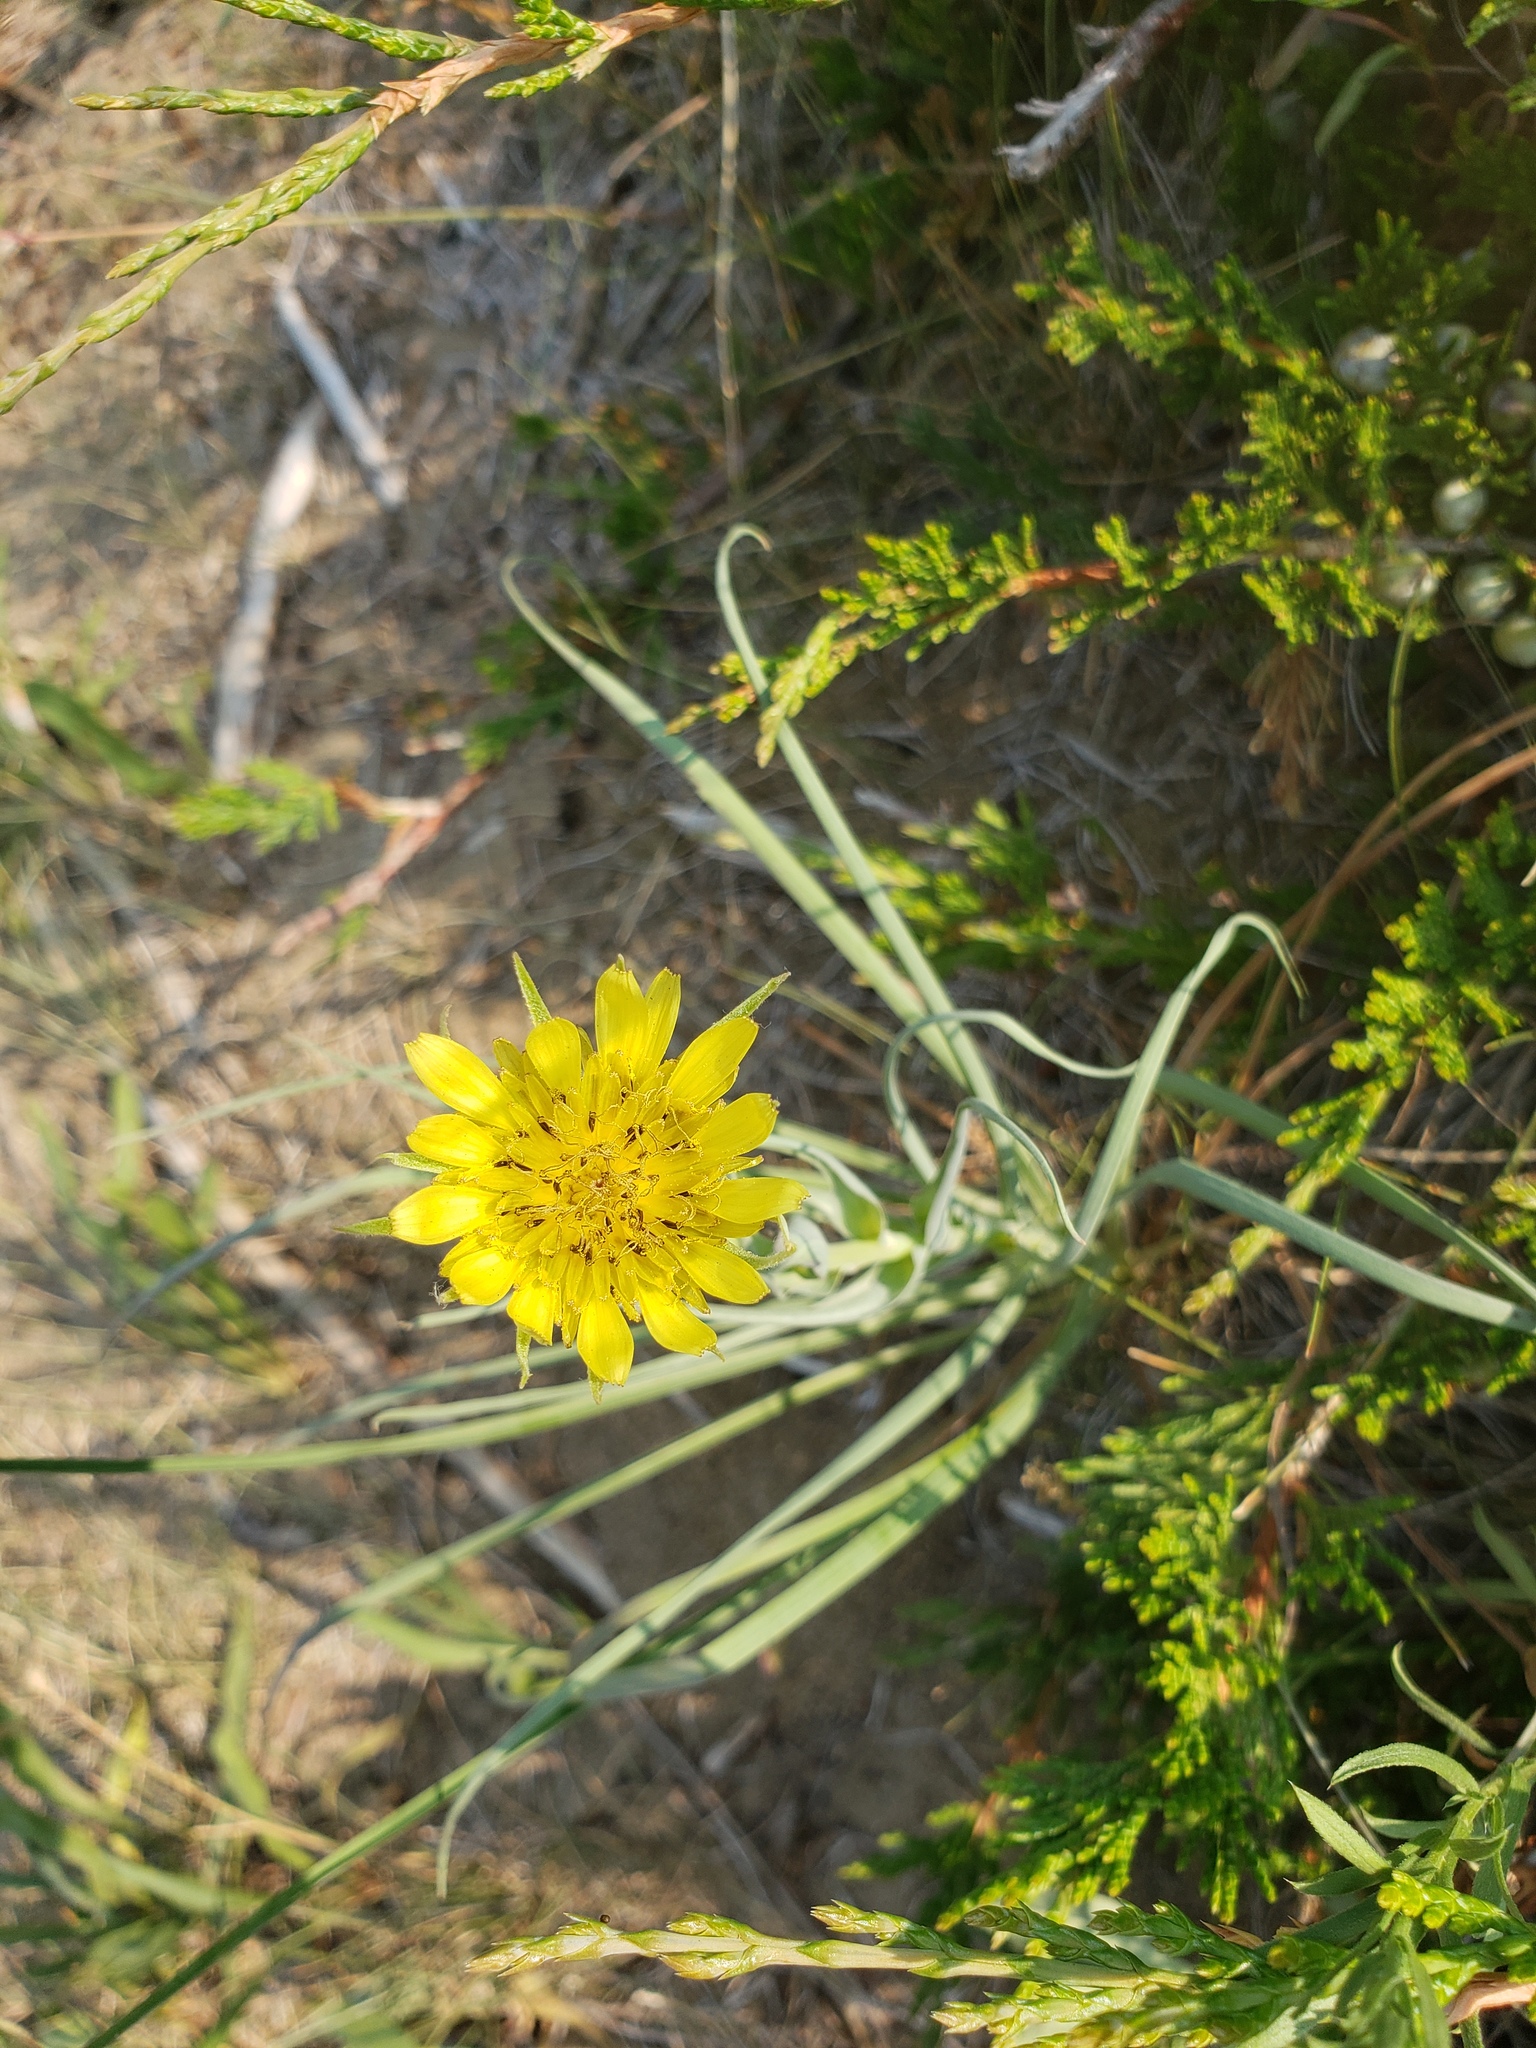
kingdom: Plantae
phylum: Tracheophyta
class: Magnoliopsida
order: Asterales
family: Asteraceae
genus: Tragopogon
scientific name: Tragopogon dubius
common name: Yellow salsify
